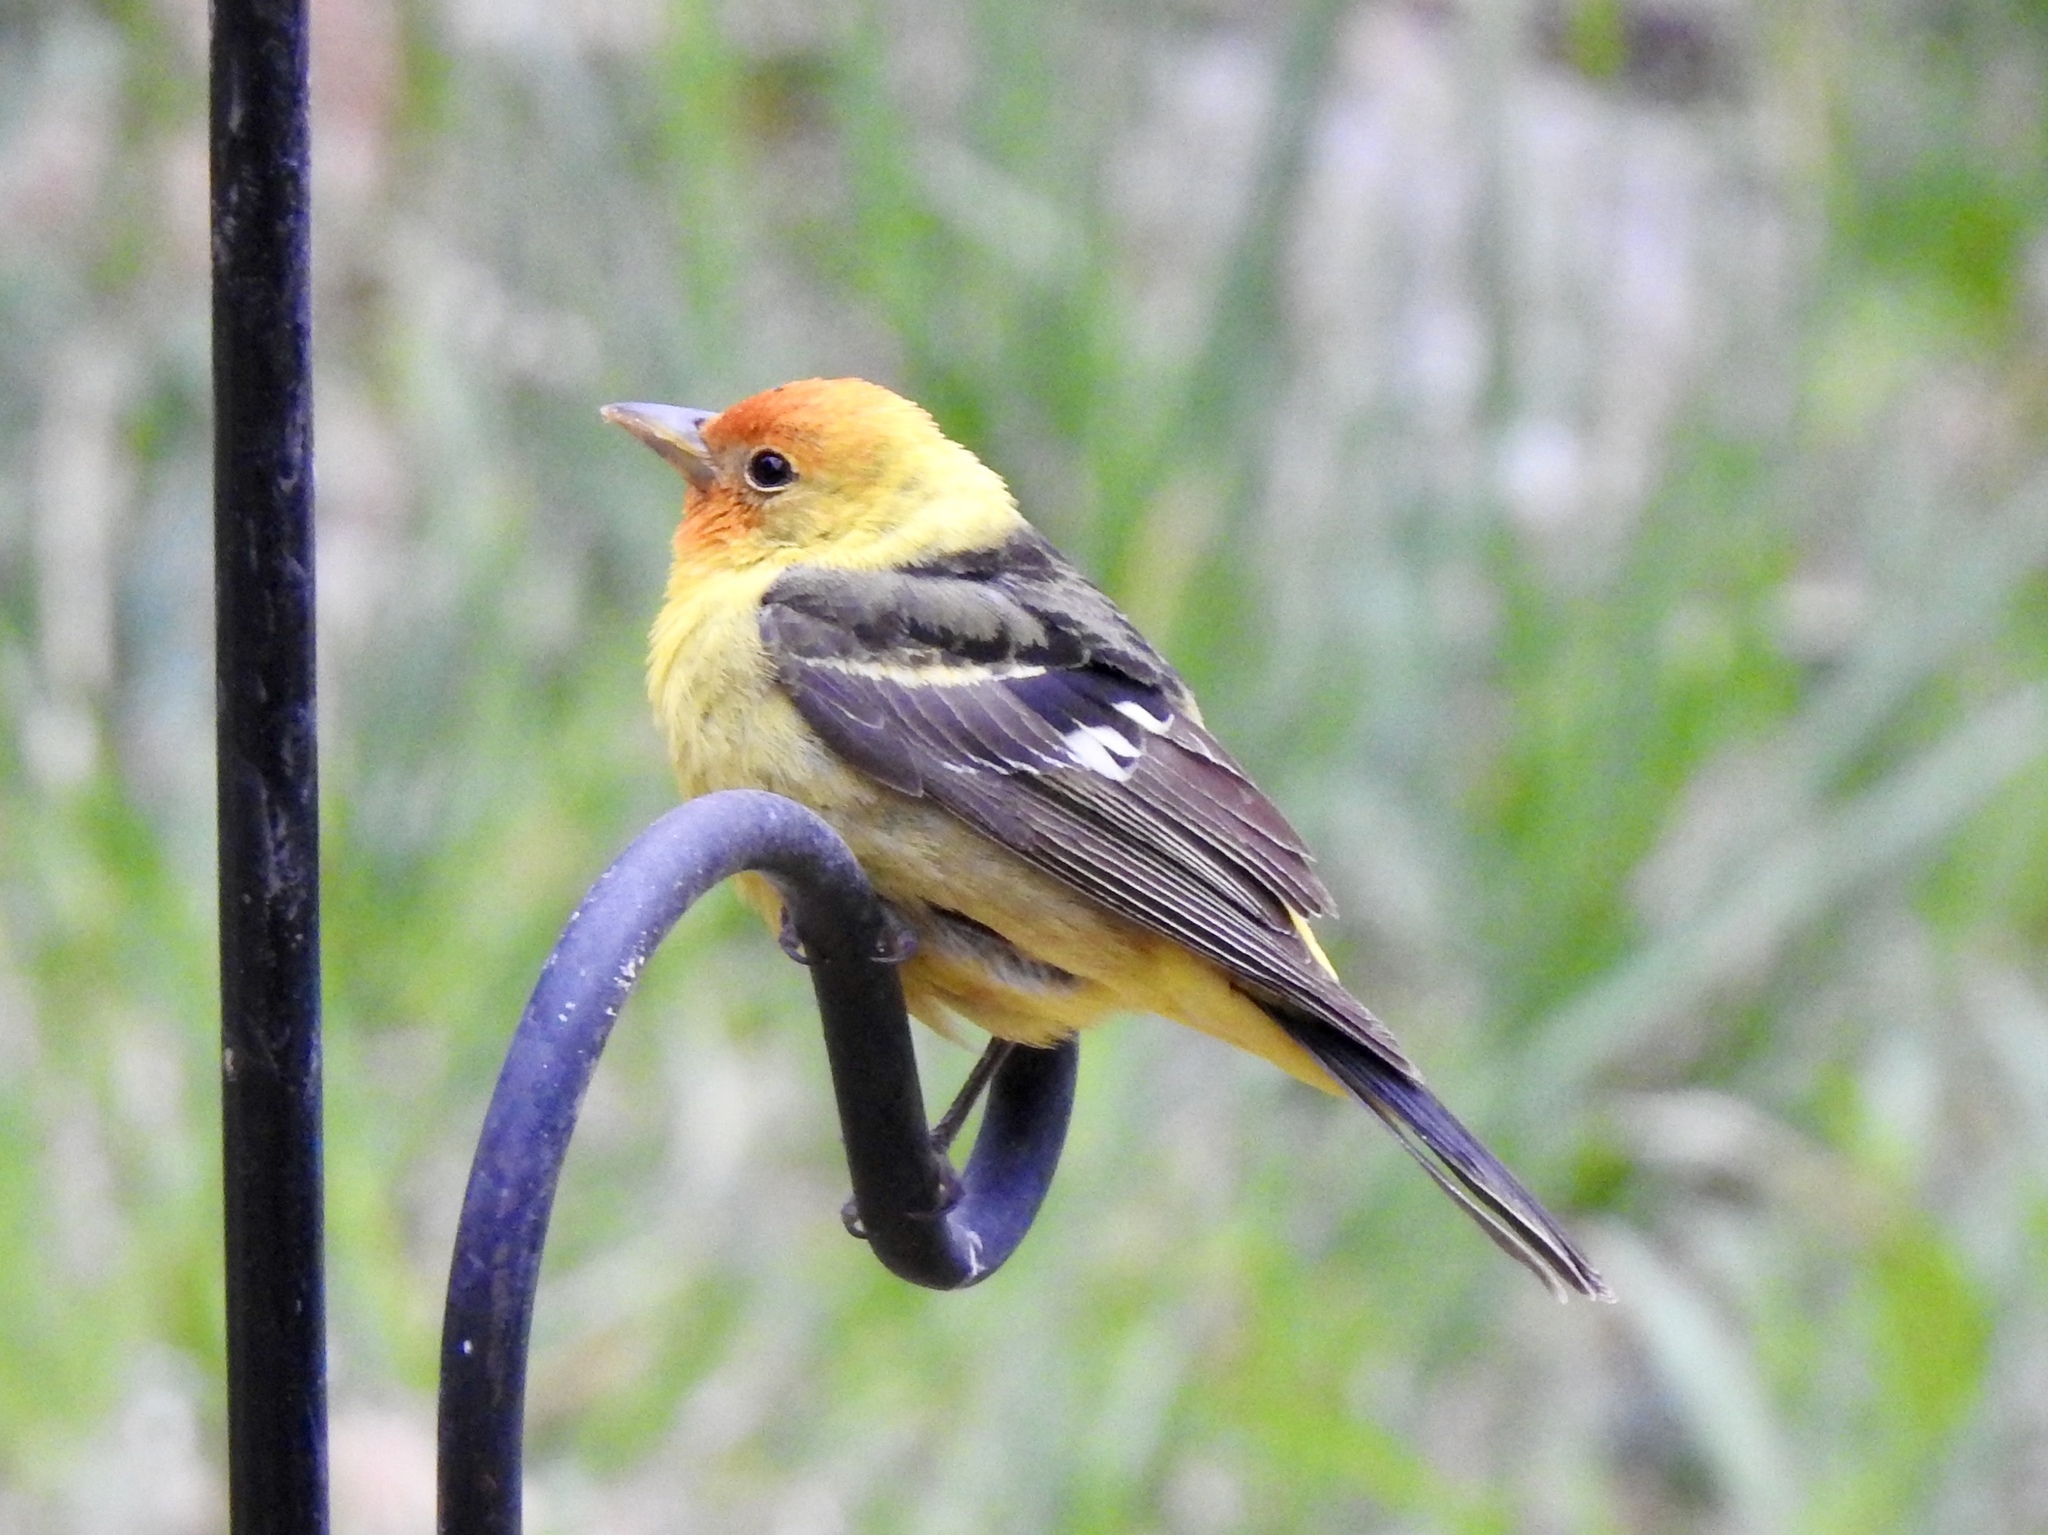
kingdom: Animalia
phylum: Chordata
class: Aves
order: Passeriformes
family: Cardinalidae
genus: Piranga
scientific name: Piranga ludoviciana
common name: Western tanager
